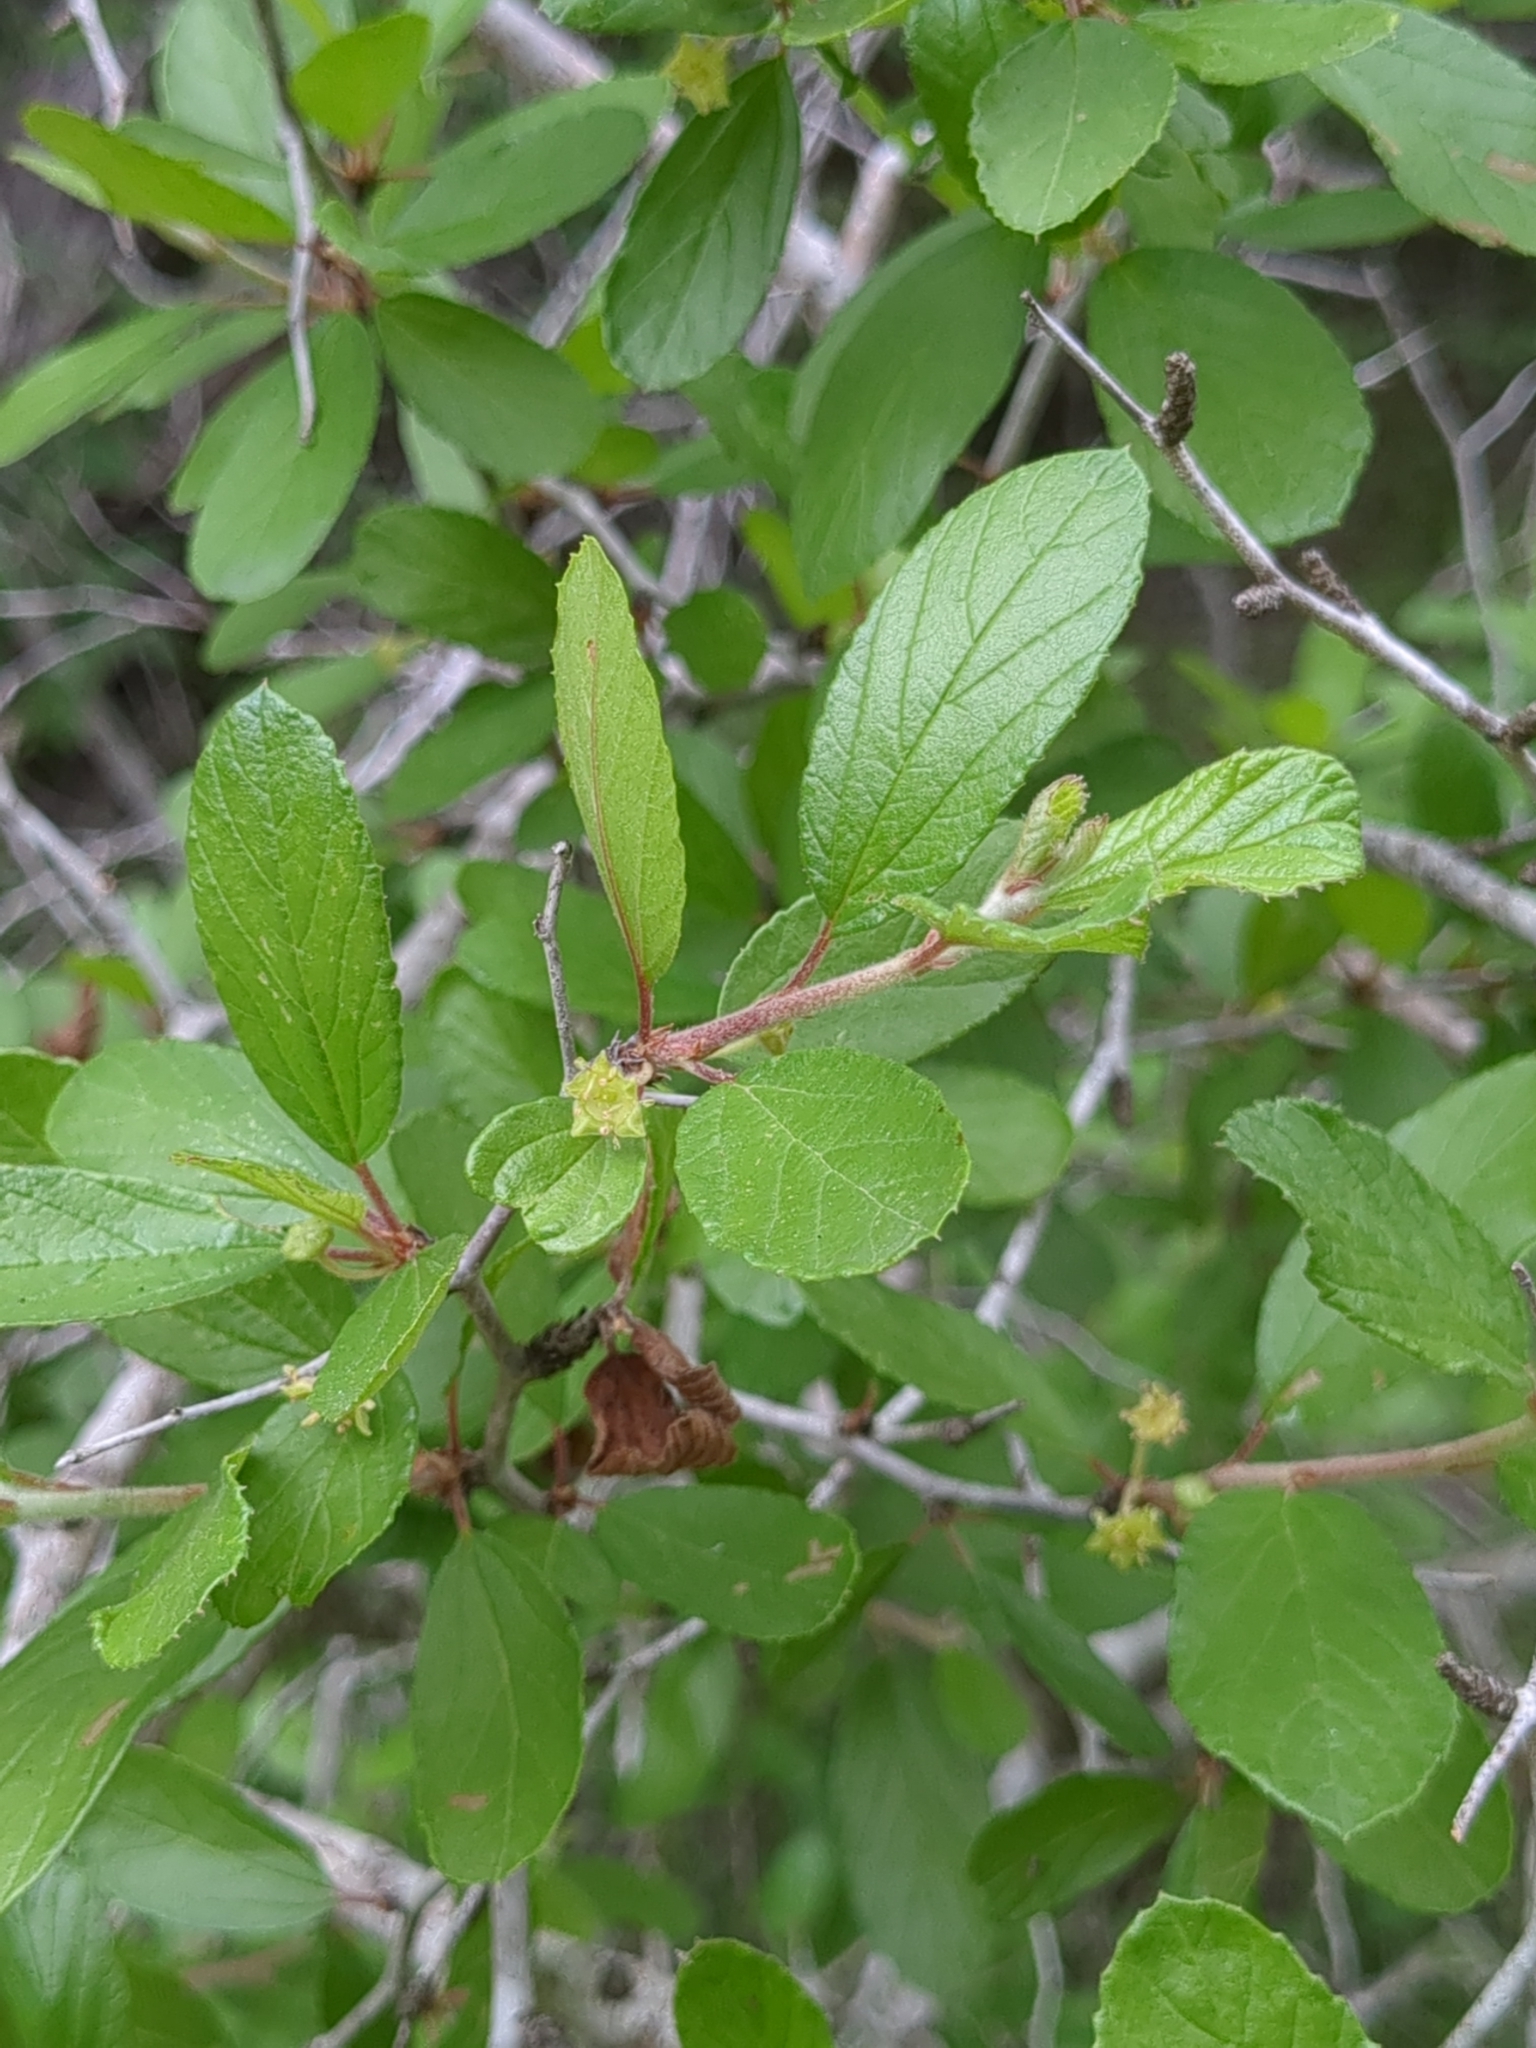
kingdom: Plantae
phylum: Tracheophyta
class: Magnoliopsida
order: Rosales
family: Rhamnaceae
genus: Colubrina
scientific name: Colubrina texensis
